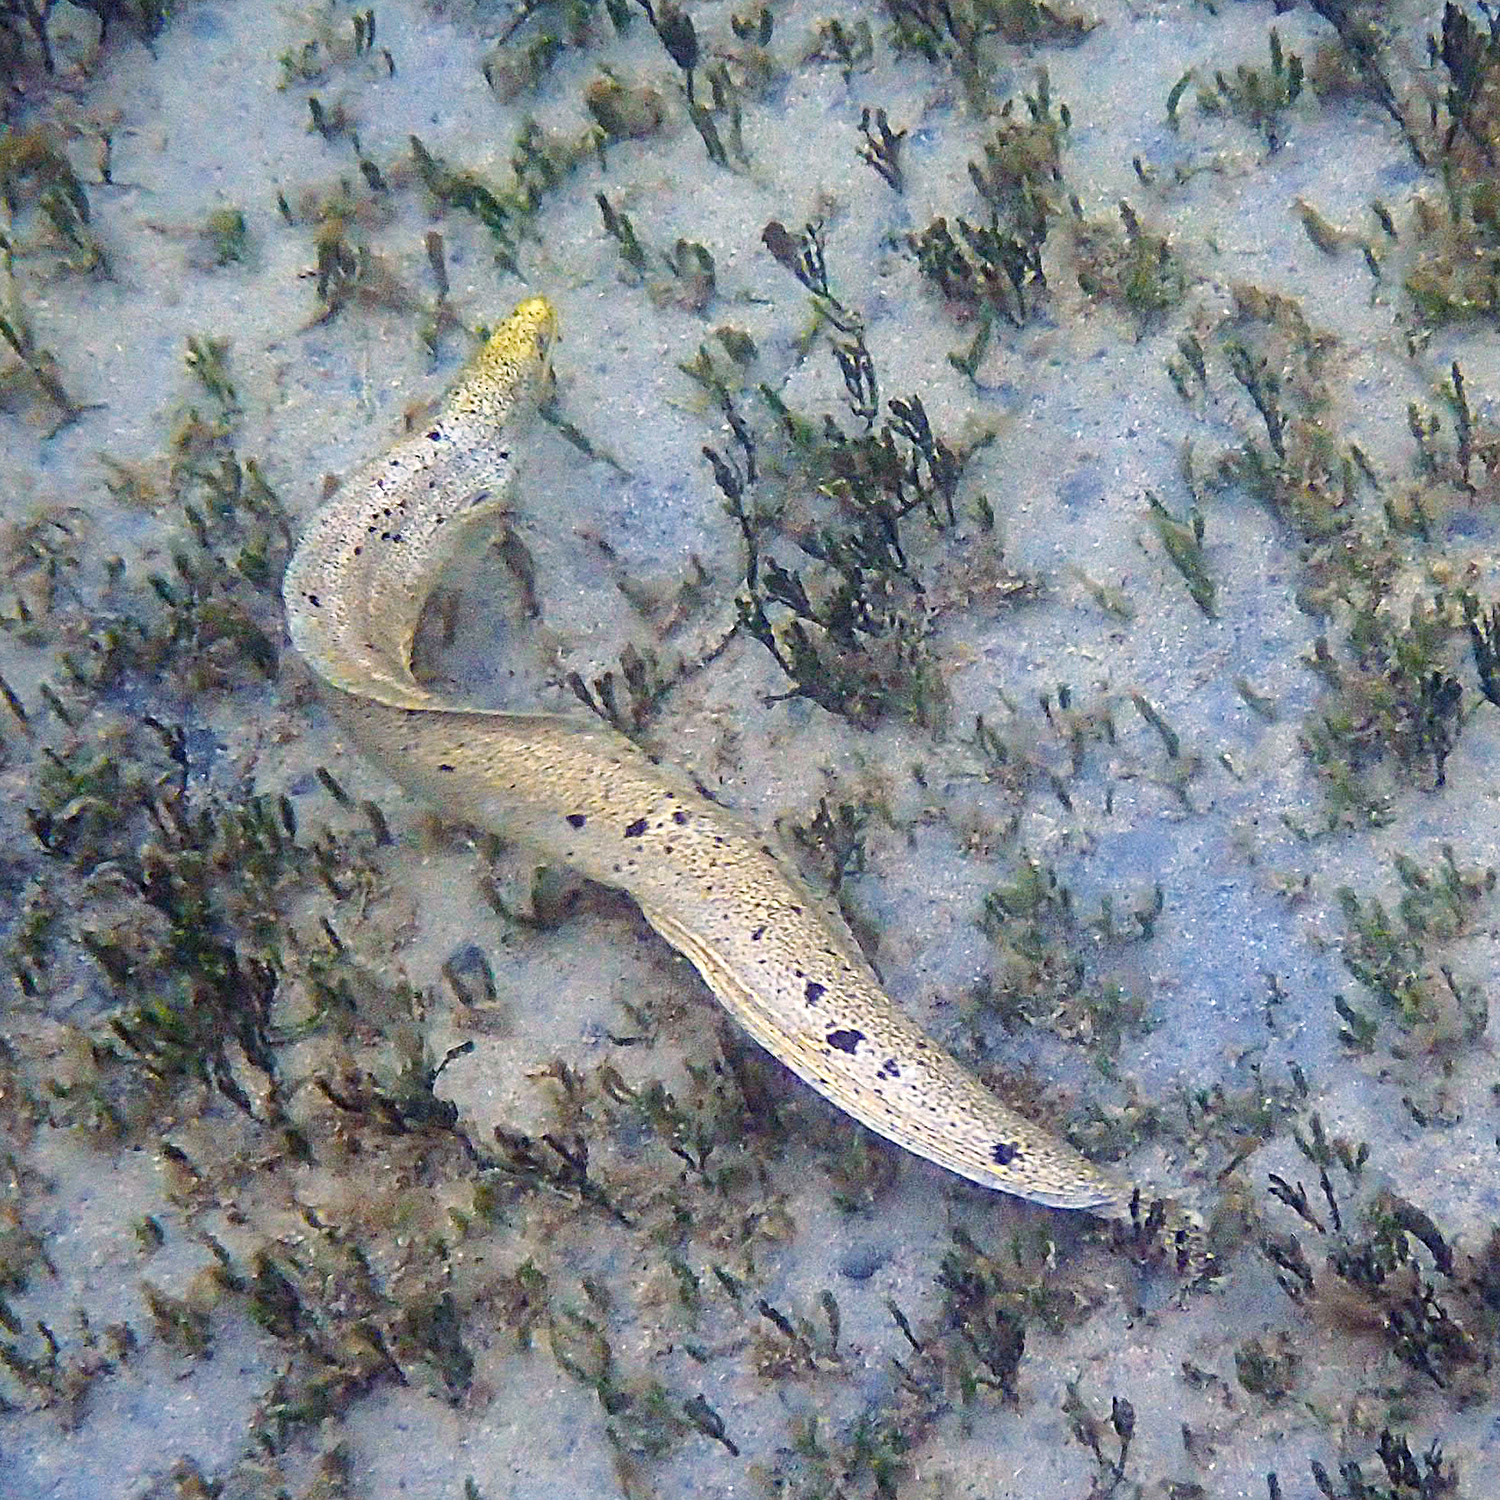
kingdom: Animalia
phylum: Chordata
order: Anguilliformes
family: Muraenidae
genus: Gymnothorax
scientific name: Gymnothorax eurostus
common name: Stout moray
